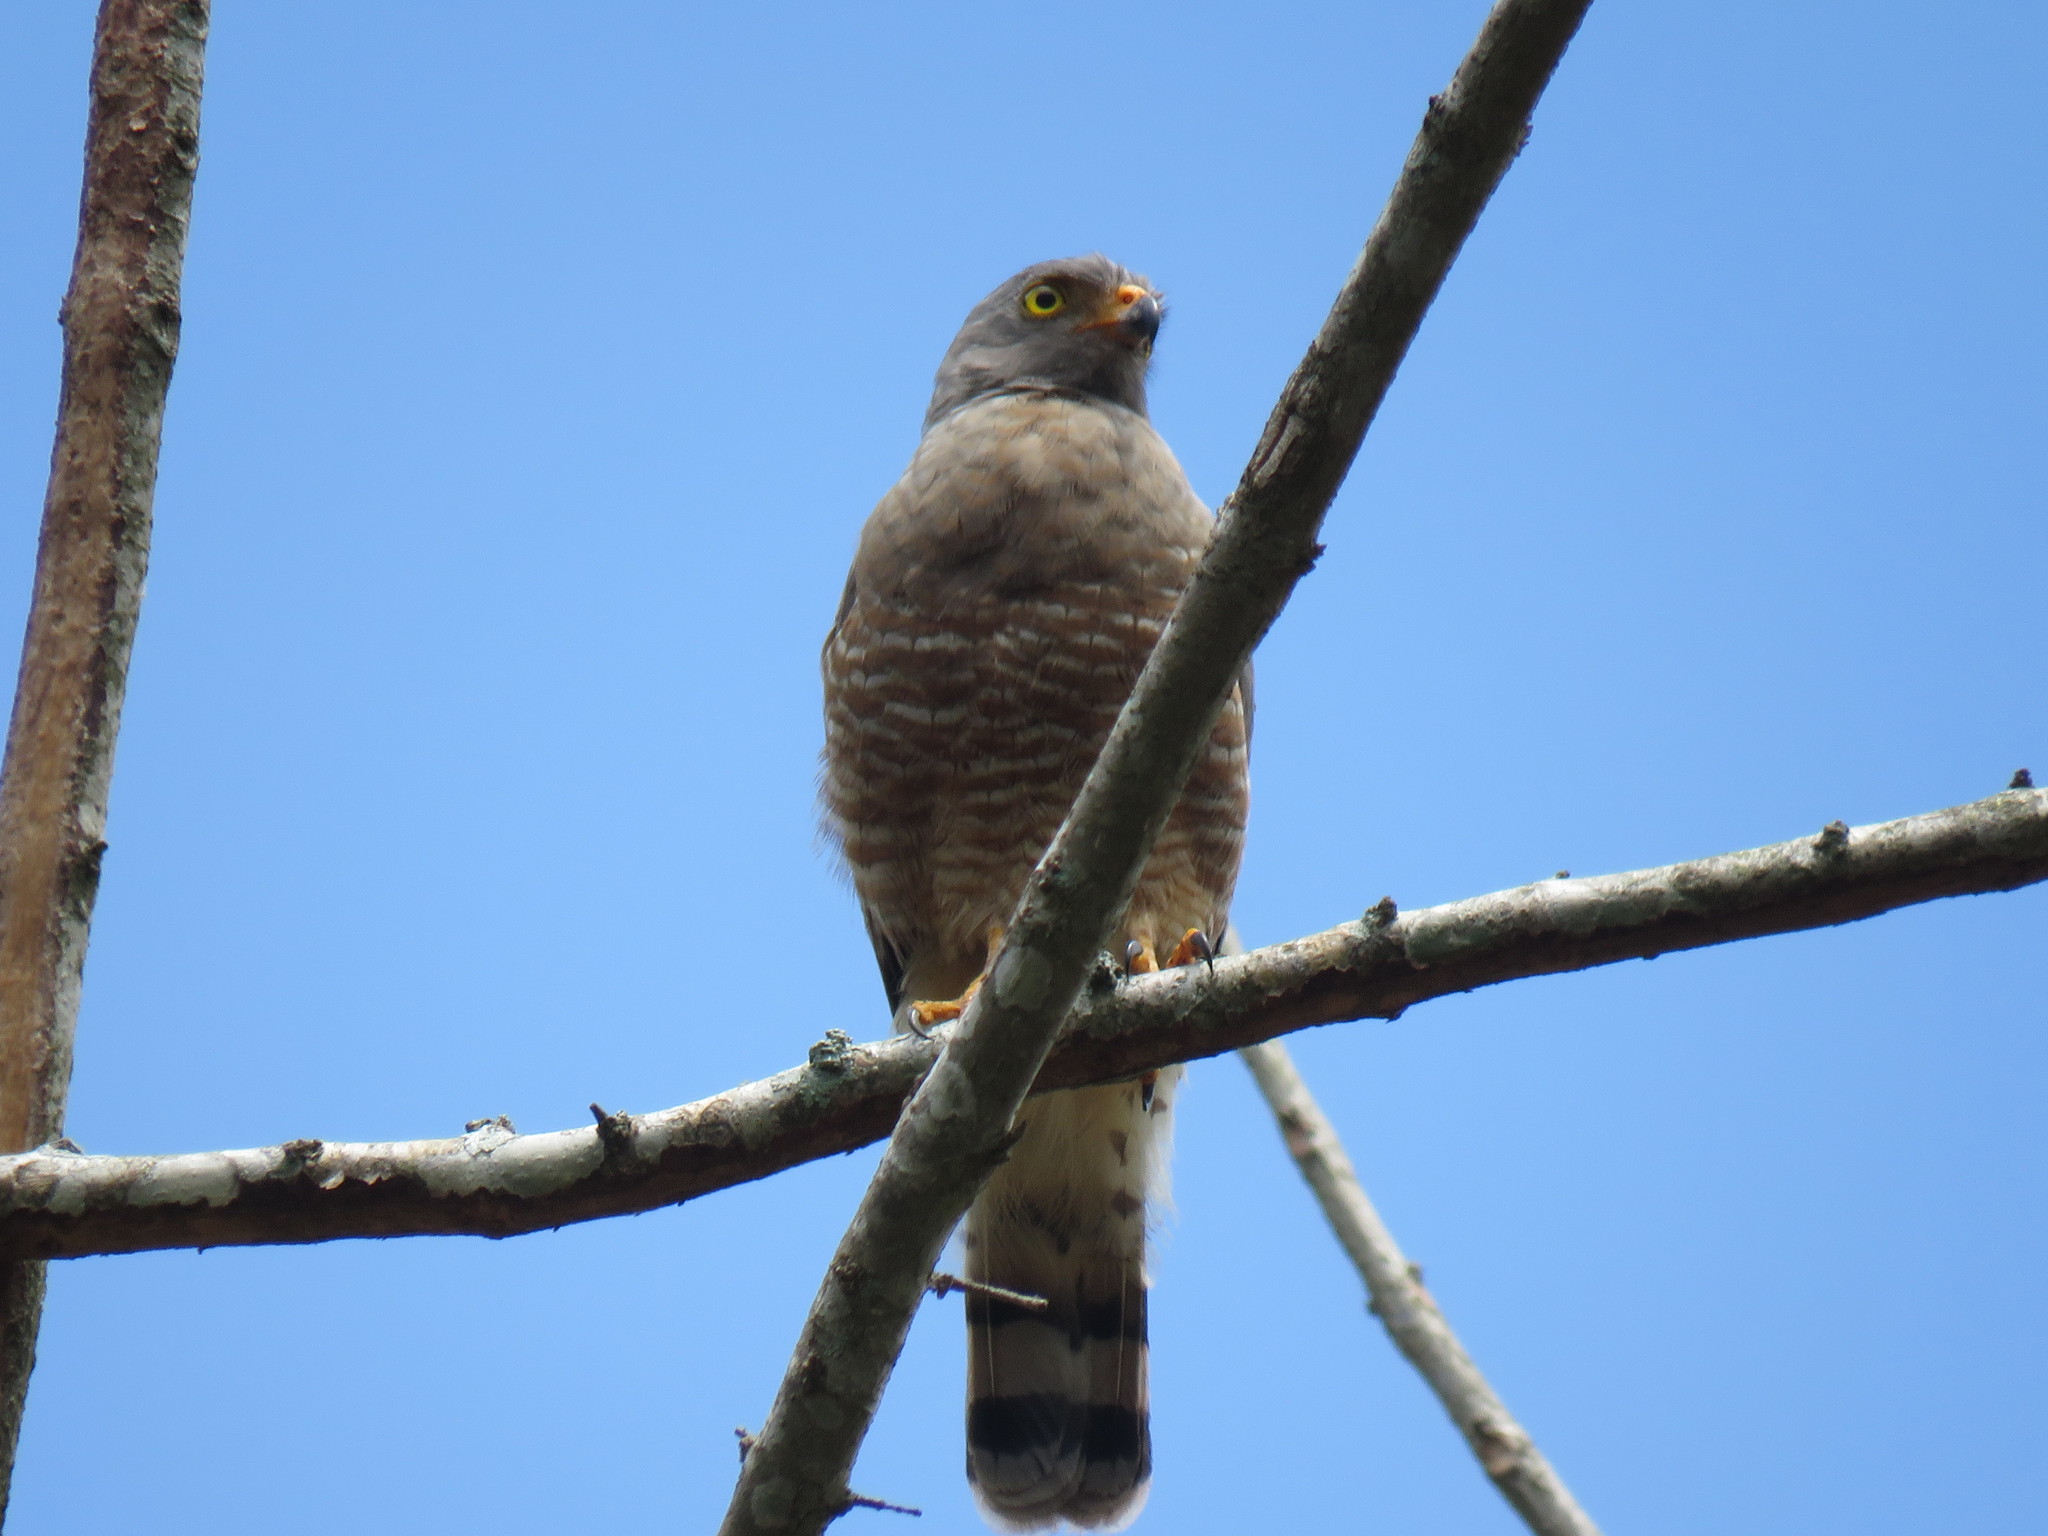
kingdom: Animalia
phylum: Chordata
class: Aves
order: Accipitriformes
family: Accipitridae
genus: Rupornis
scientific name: Rupornis magnirostris
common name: Roadside hawk
